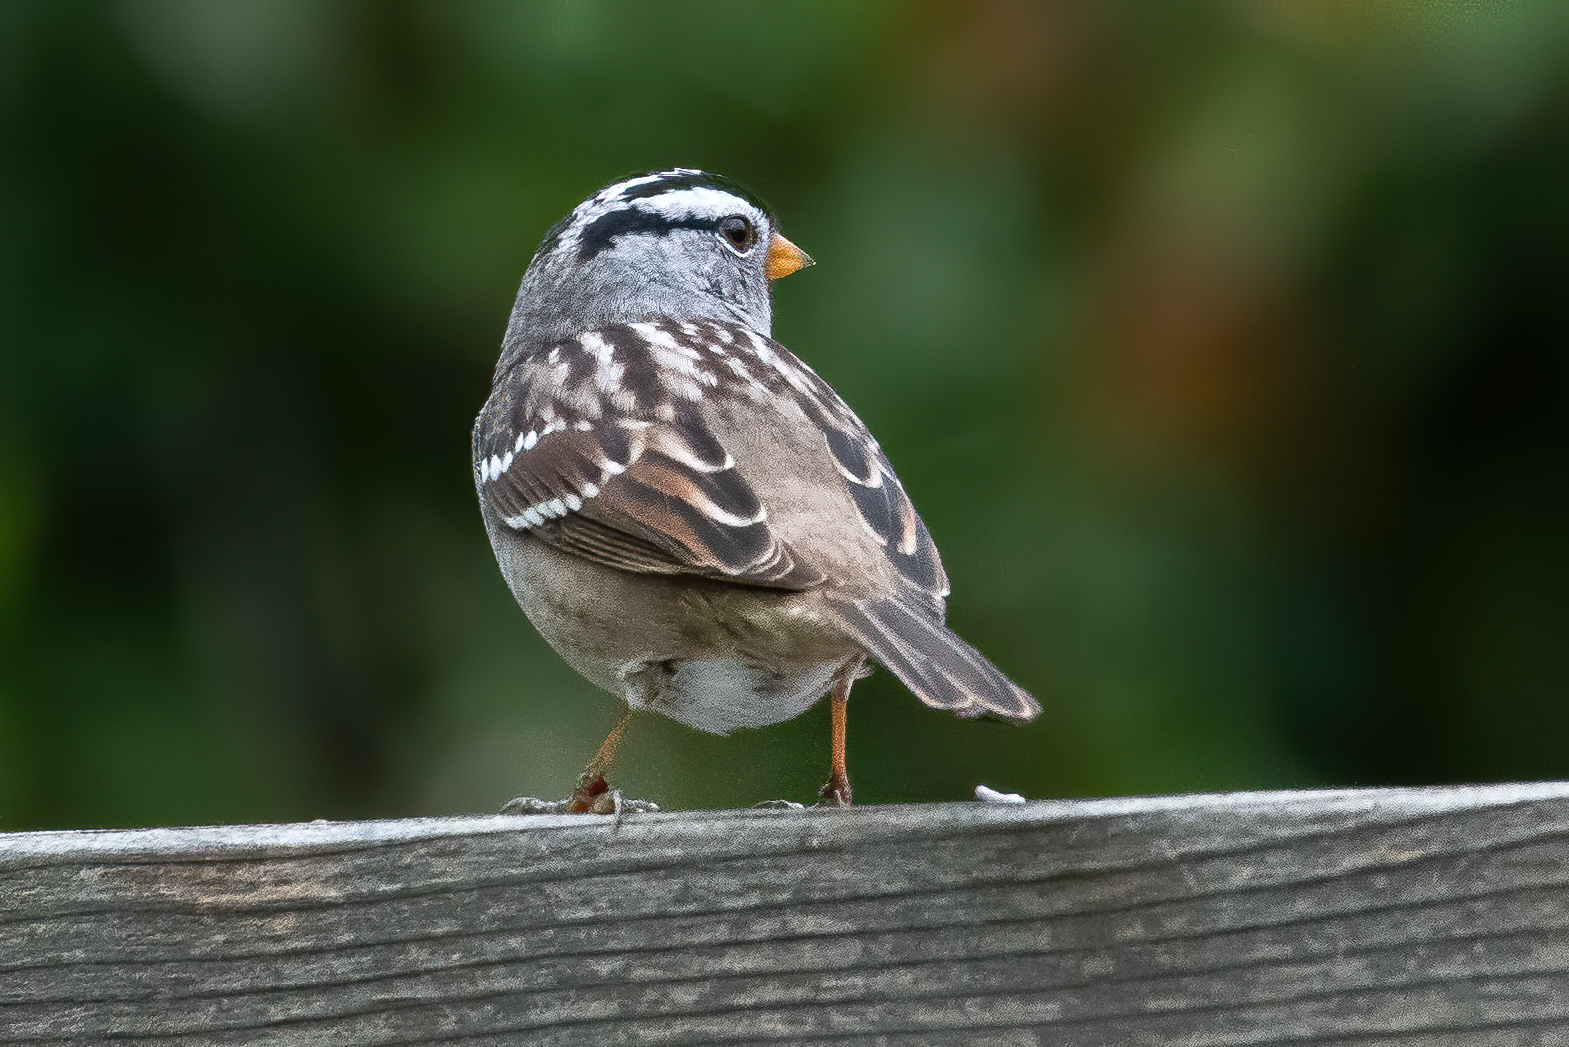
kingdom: Animalia
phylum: Chordata
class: Aves
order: Passeriformes
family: Passerellidae
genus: Zonotrichia
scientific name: Zonotrichia leucophrys
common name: White-crowned sparrow
